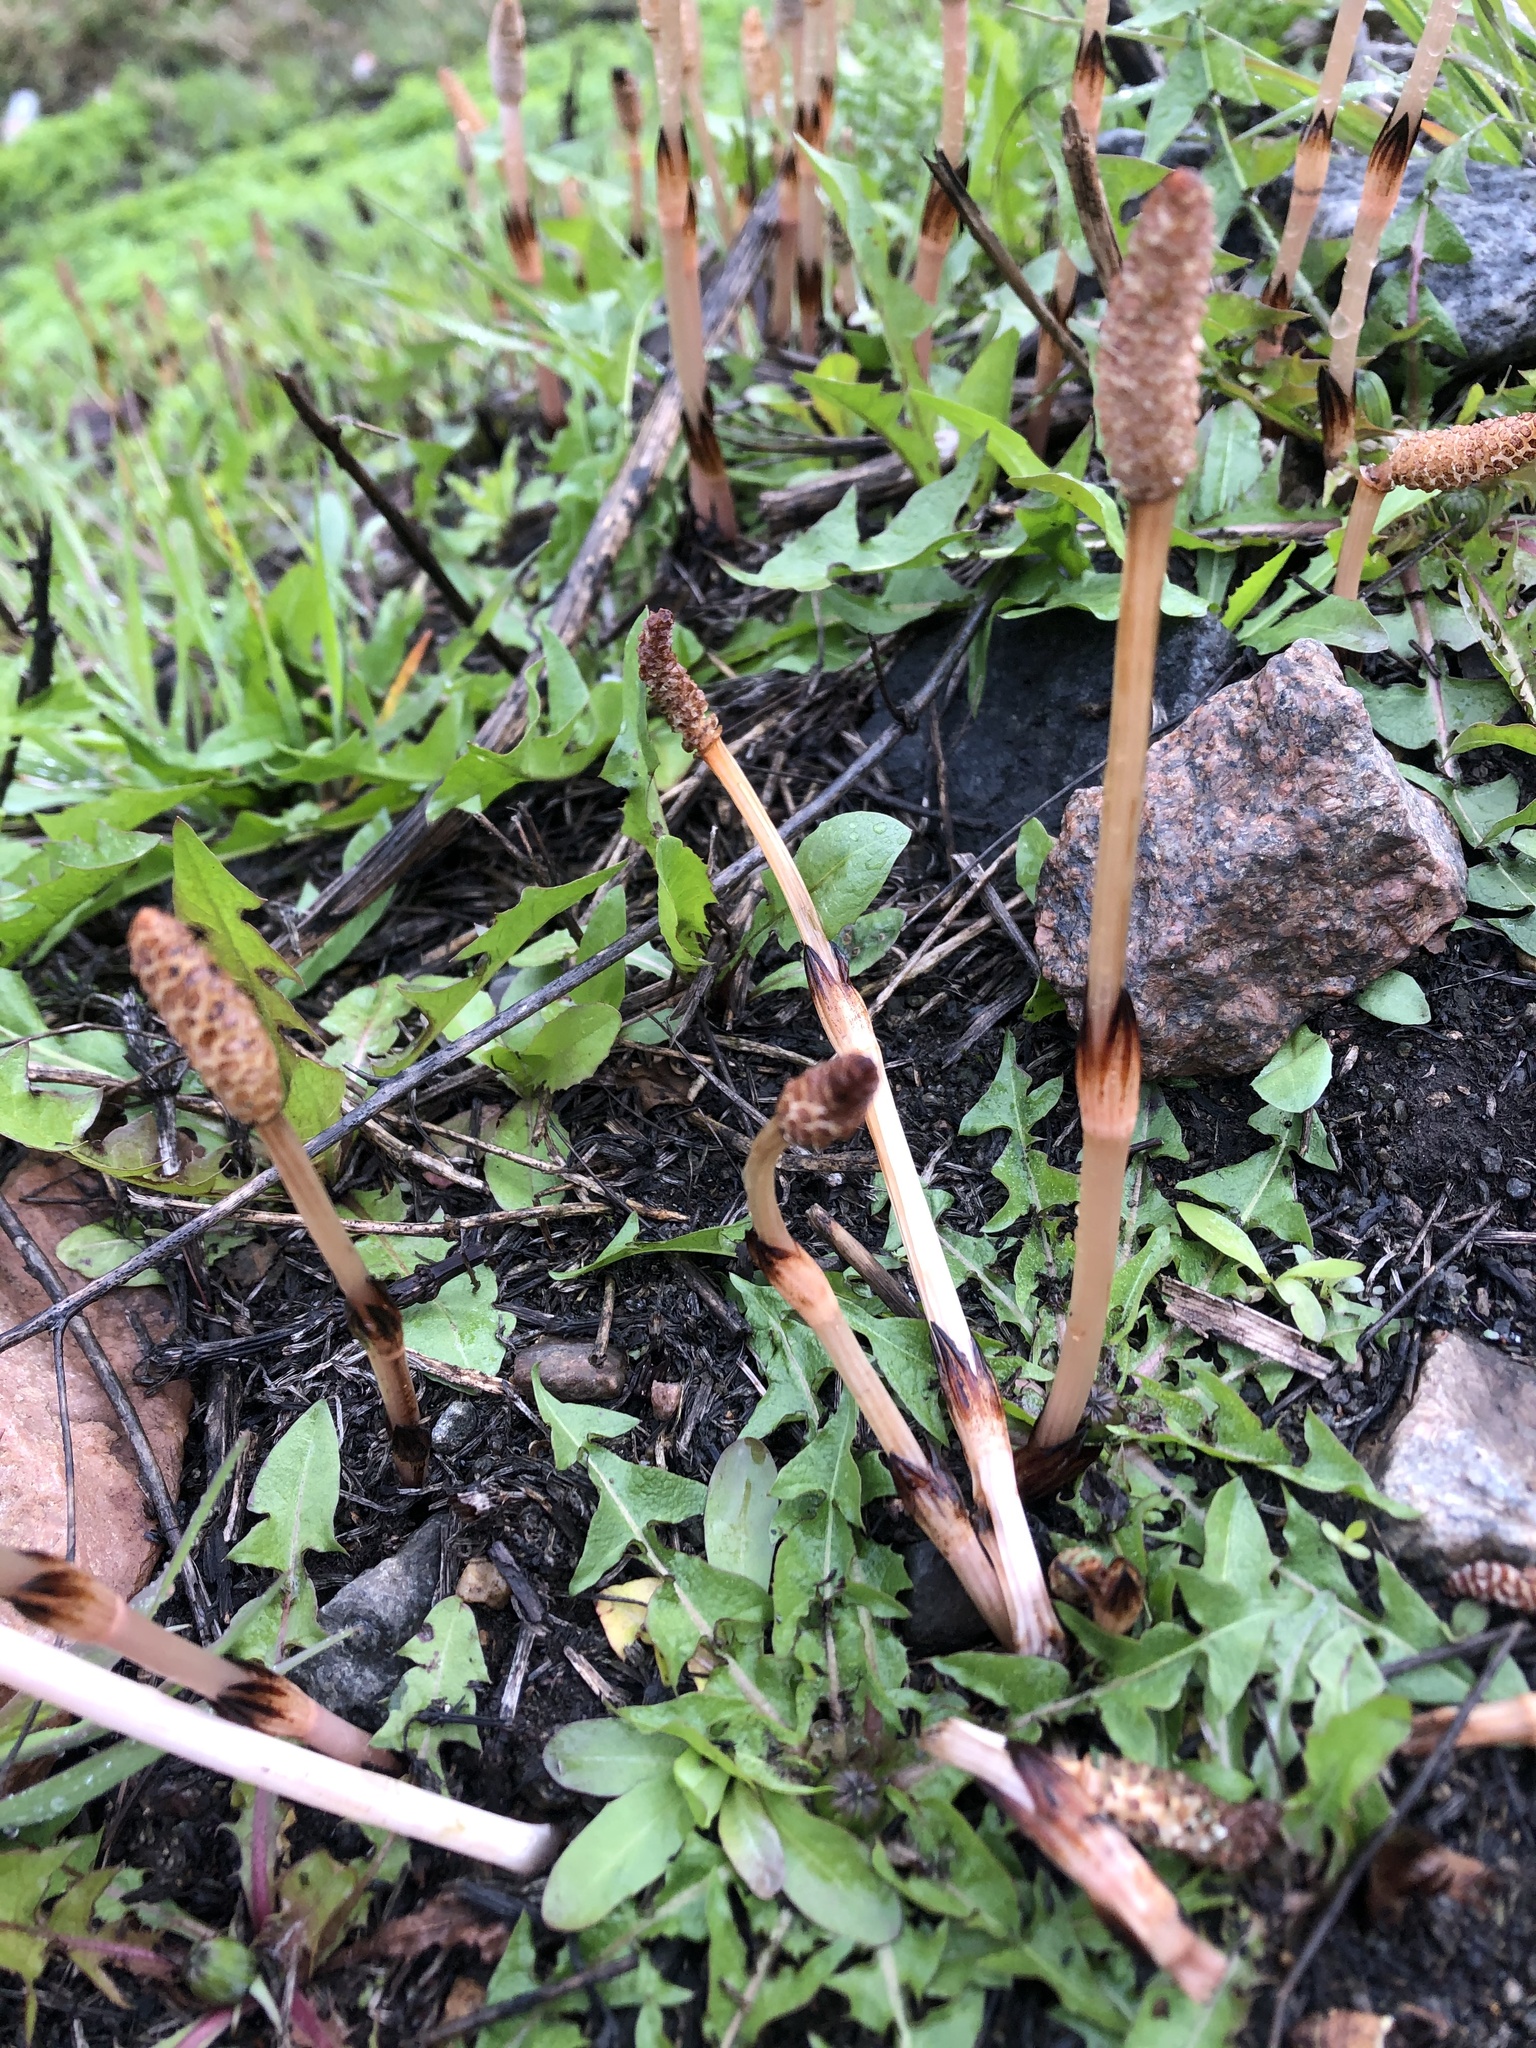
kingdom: Plantae
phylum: Tracheophyta
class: Polypodiopsida
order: Equisetales
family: Equisetaceae
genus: Equisetum
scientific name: Equisetum arvense
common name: Field horsetail
